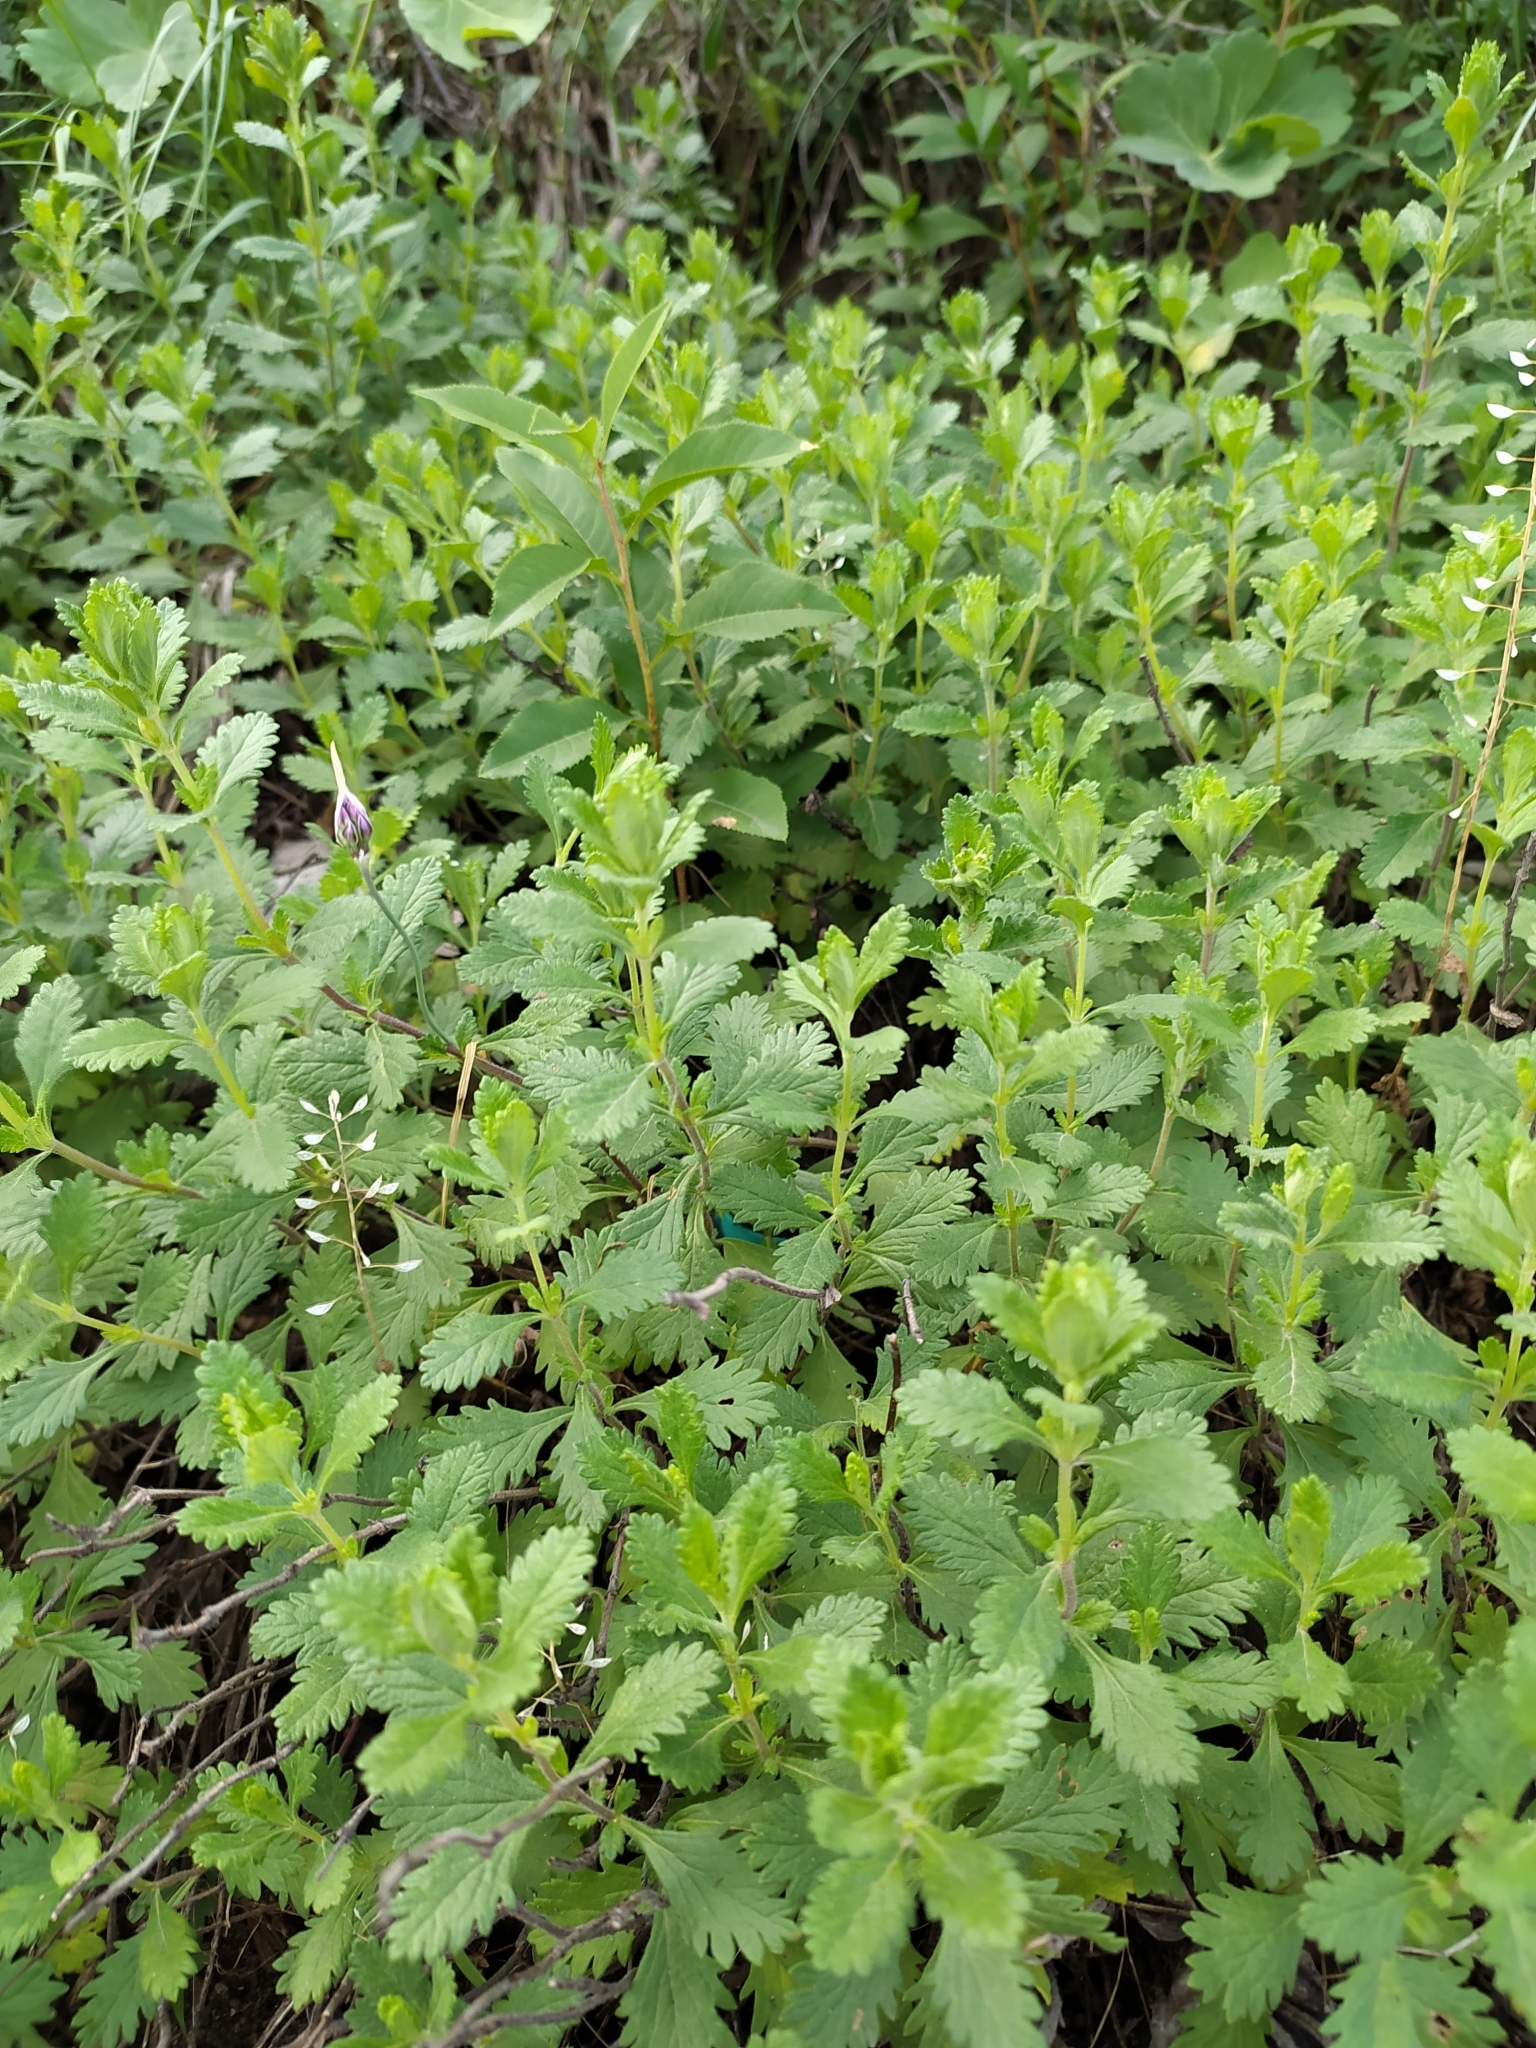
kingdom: Plantae
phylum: Tracheophyta
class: Magnoliopsida
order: Lamiales
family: Lamiaceae
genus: Teucrium
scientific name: Teucrium chamaedrys
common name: Wall germander
